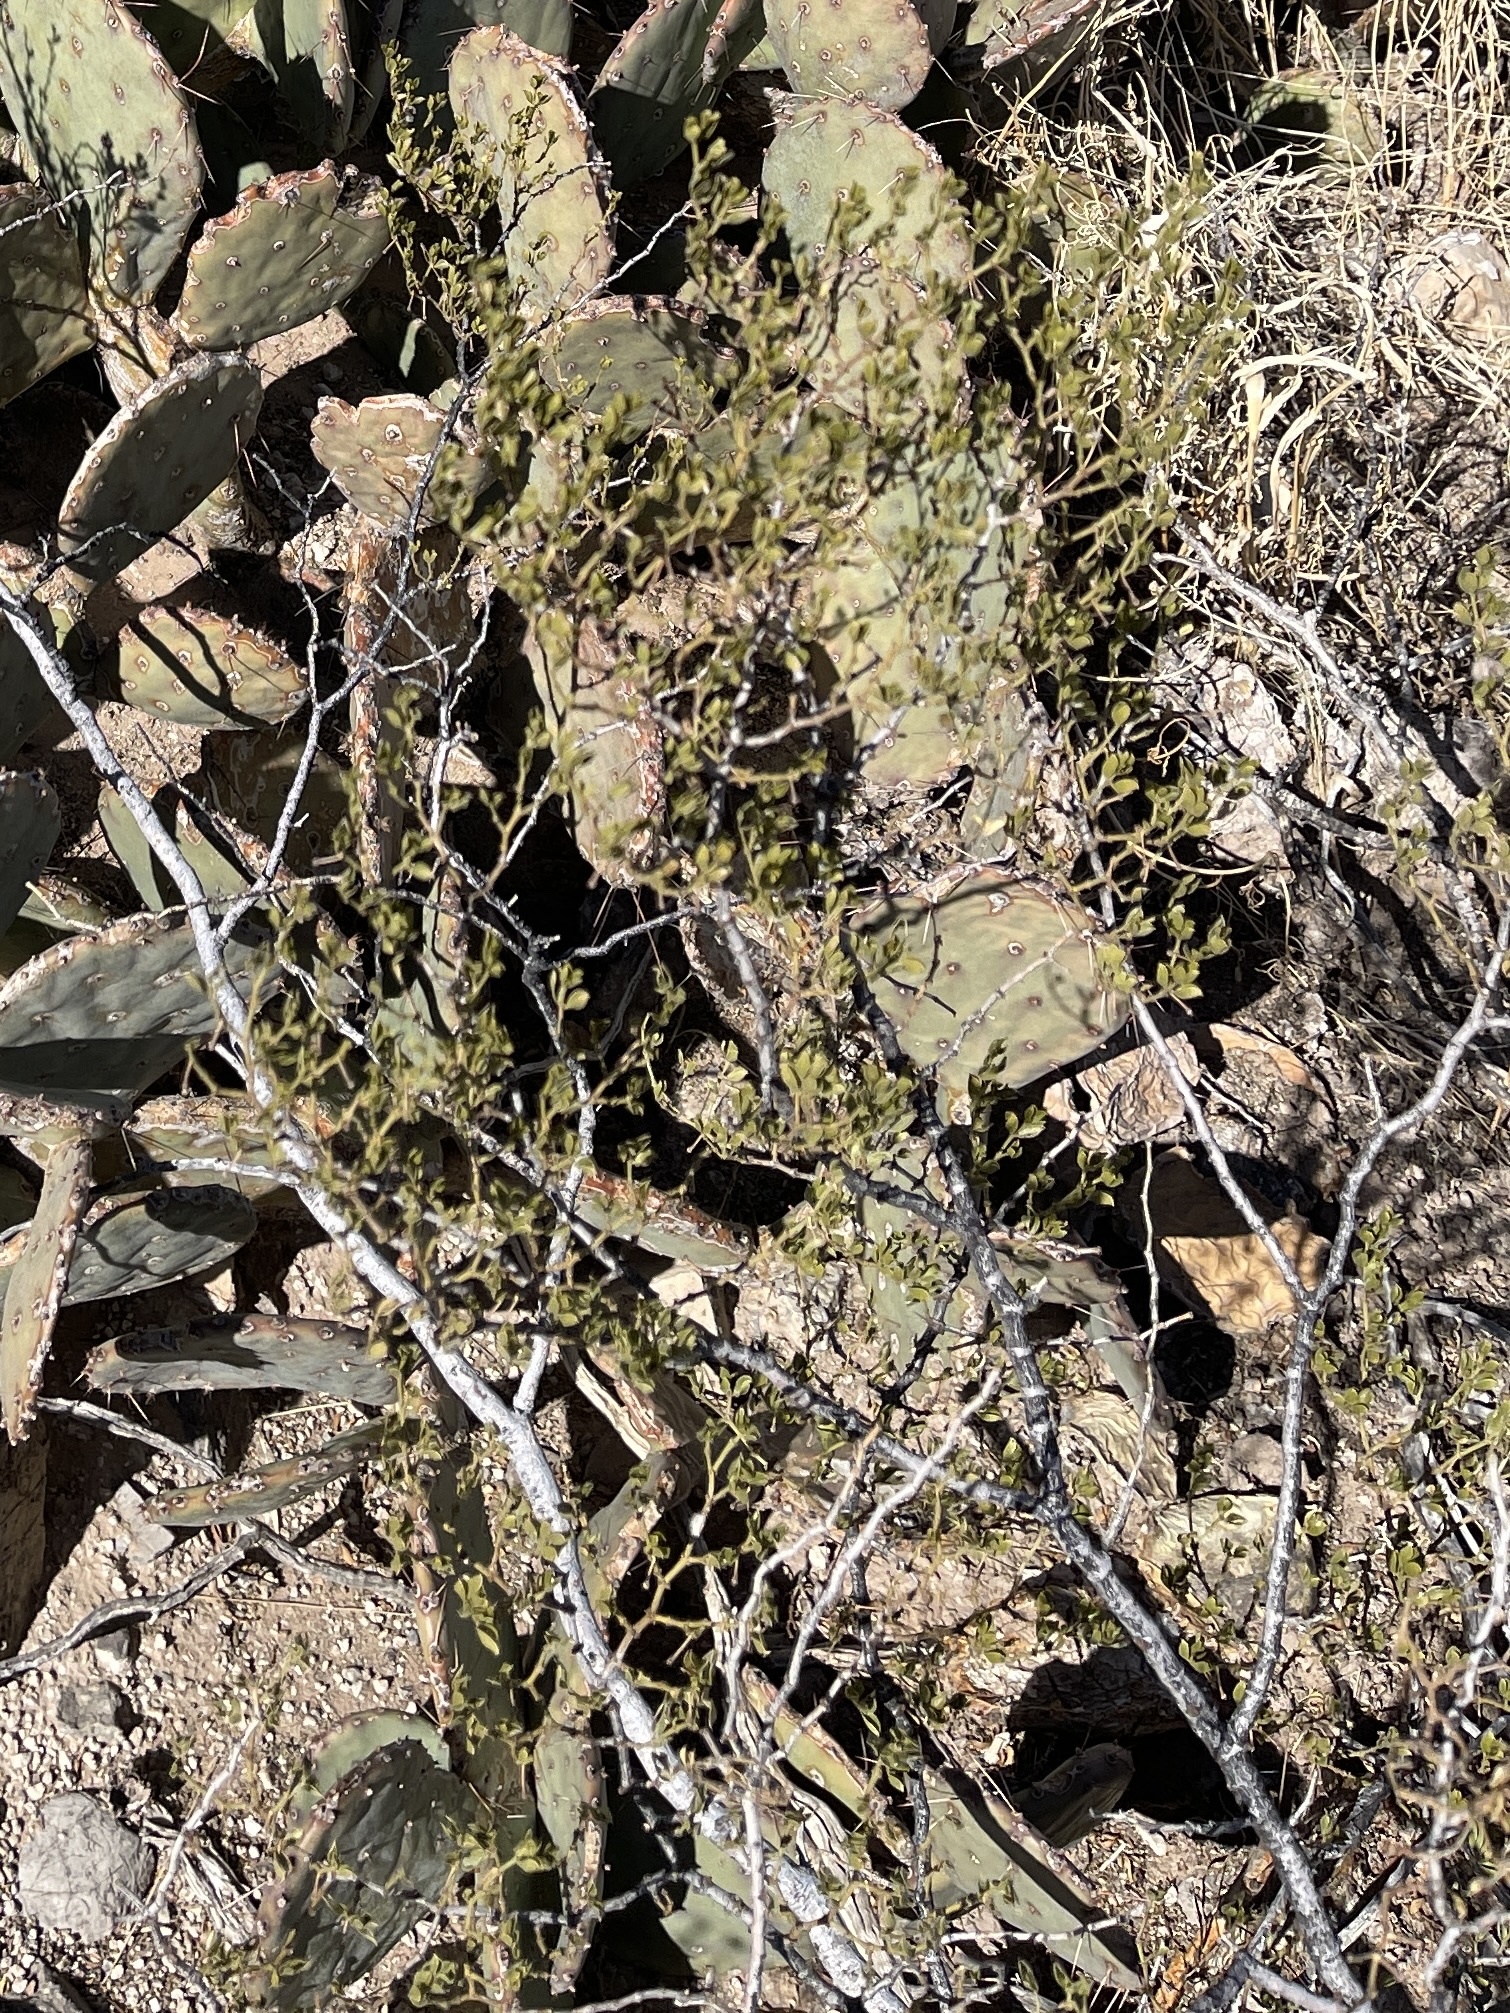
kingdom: Plantae
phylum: Tracheophyta
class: Magnoliopsida
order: Zygophyllales
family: Zygophyllaceae
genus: Larrea
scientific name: Larrea tridentata
